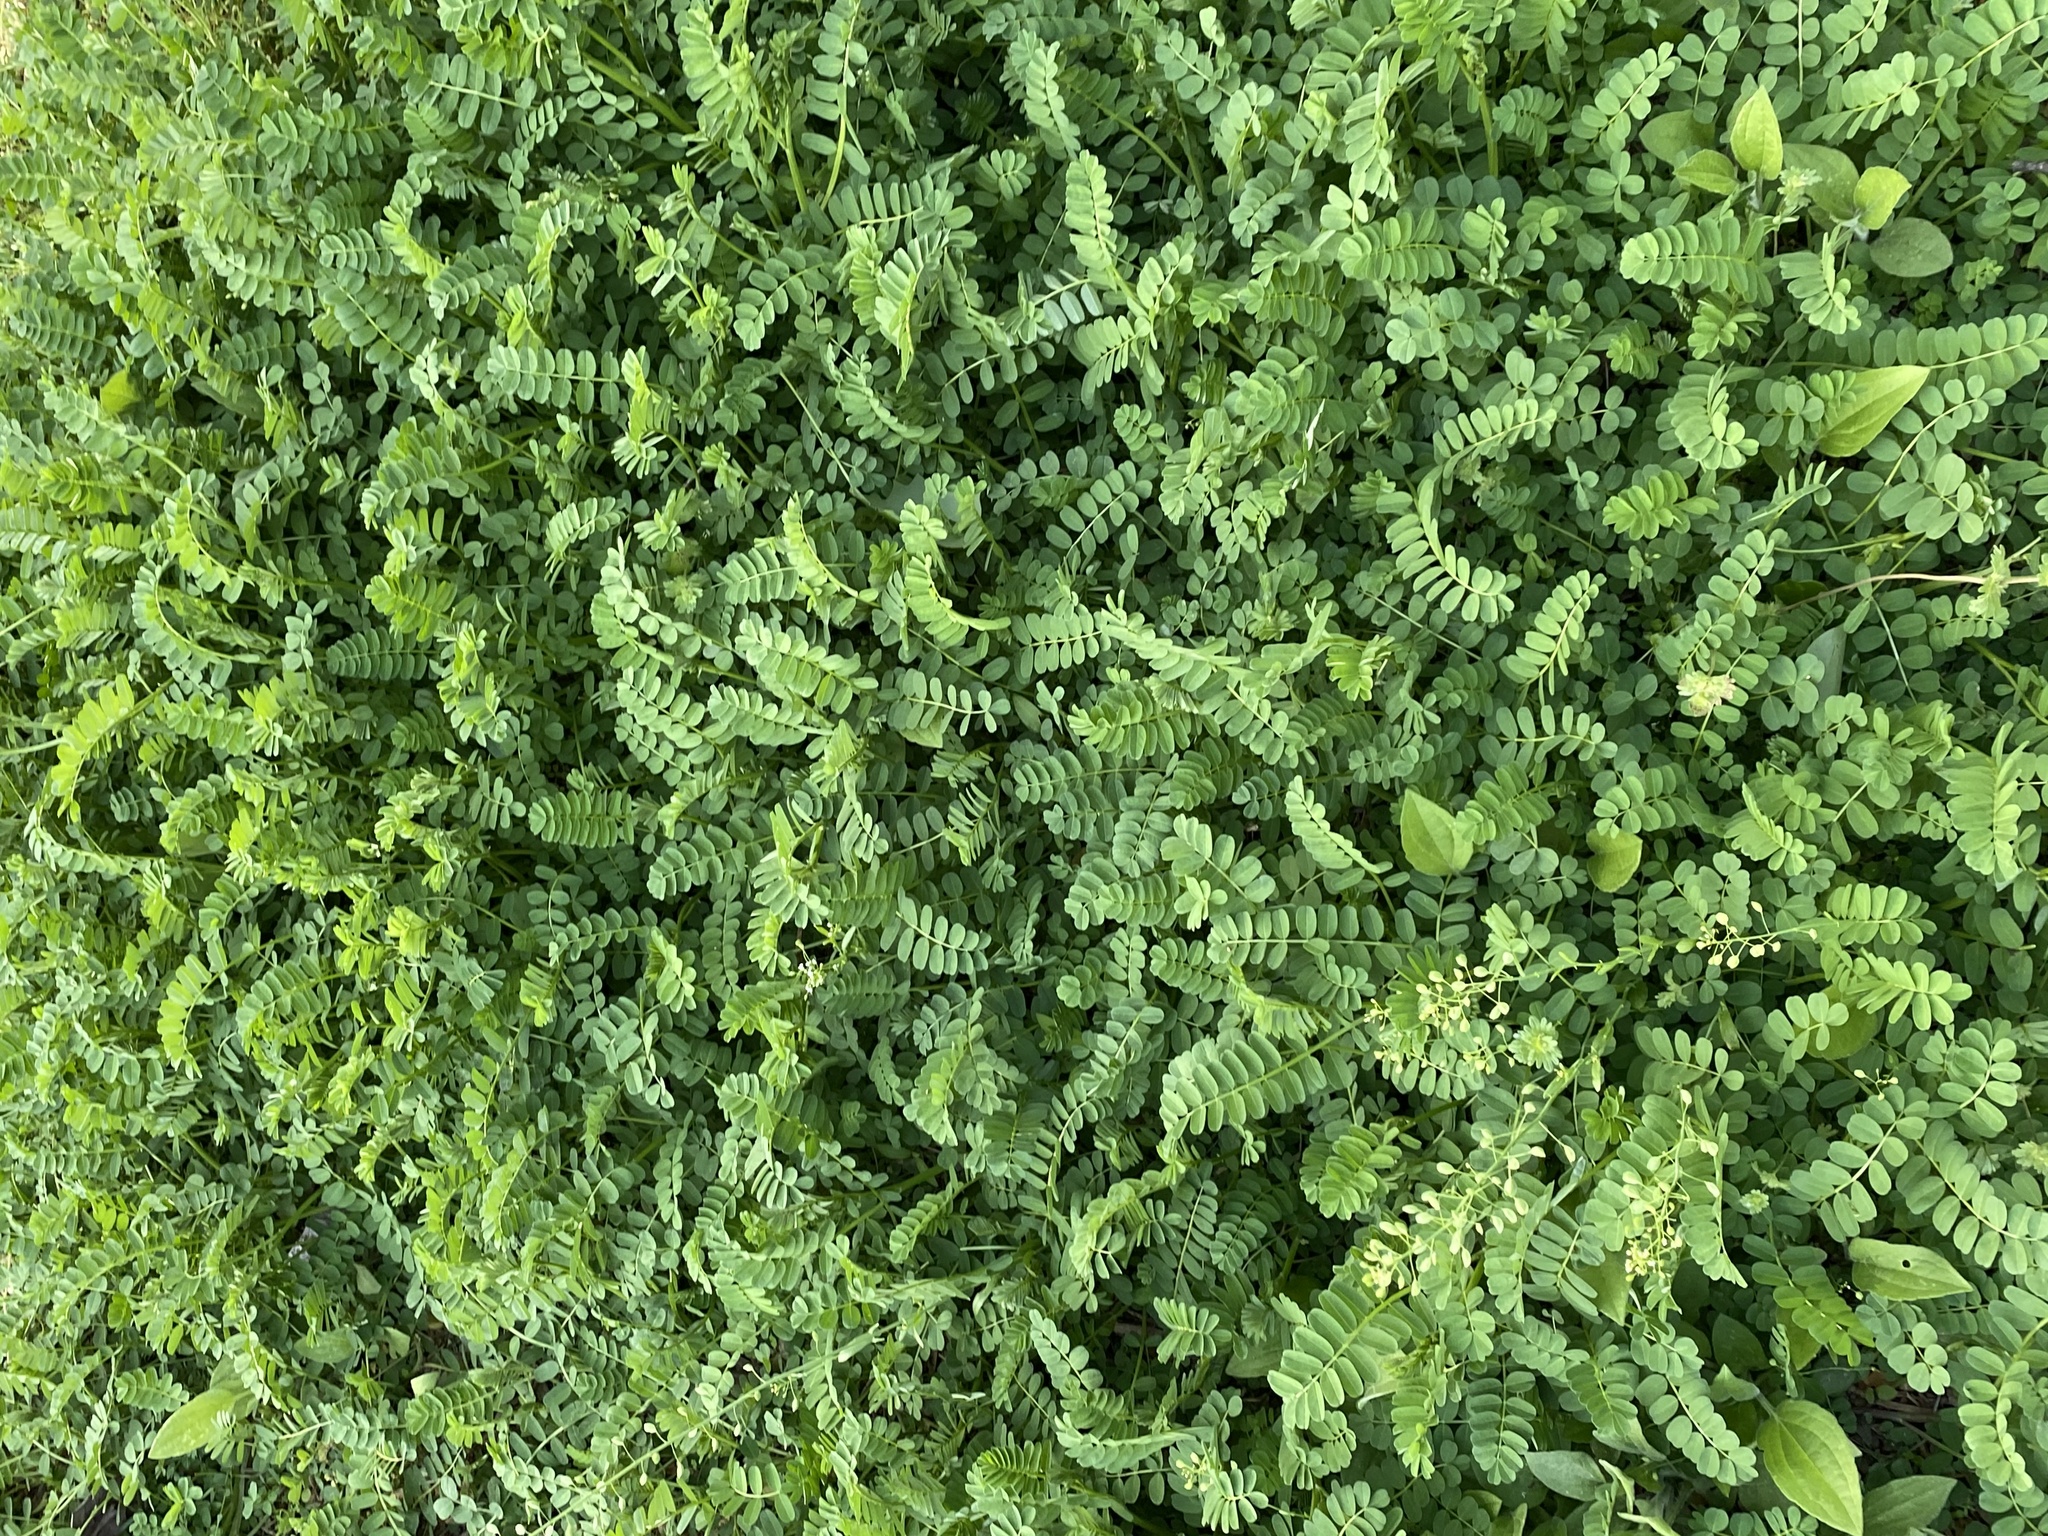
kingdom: Plantae
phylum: Tracheophyta
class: Magnoliopsida
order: Fabales
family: Fabaceae
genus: Coronilla
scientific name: Coronilla varia
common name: Crownvetch
